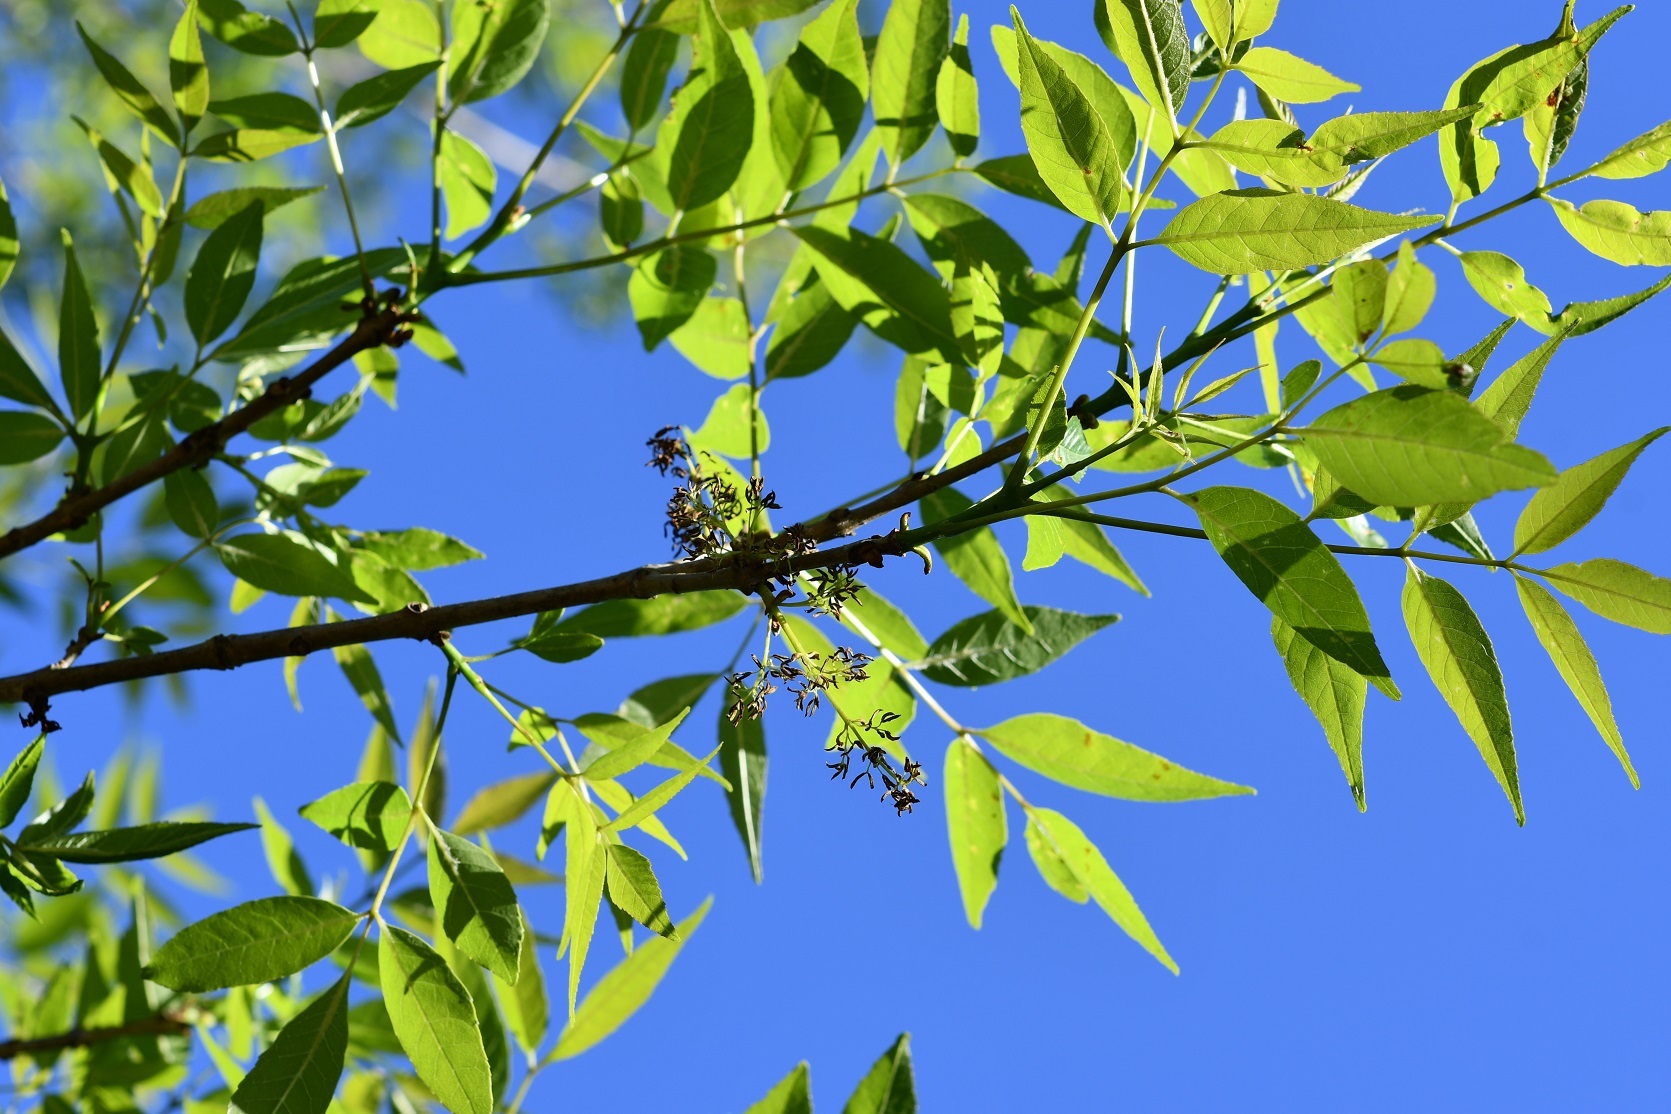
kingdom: Plantae
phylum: Tracheophyta
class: Magnoliopsida
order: Lamiales
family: Oleaceae
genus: Fraxinus
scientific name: Fraxinus velutina
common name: Arizon ash
